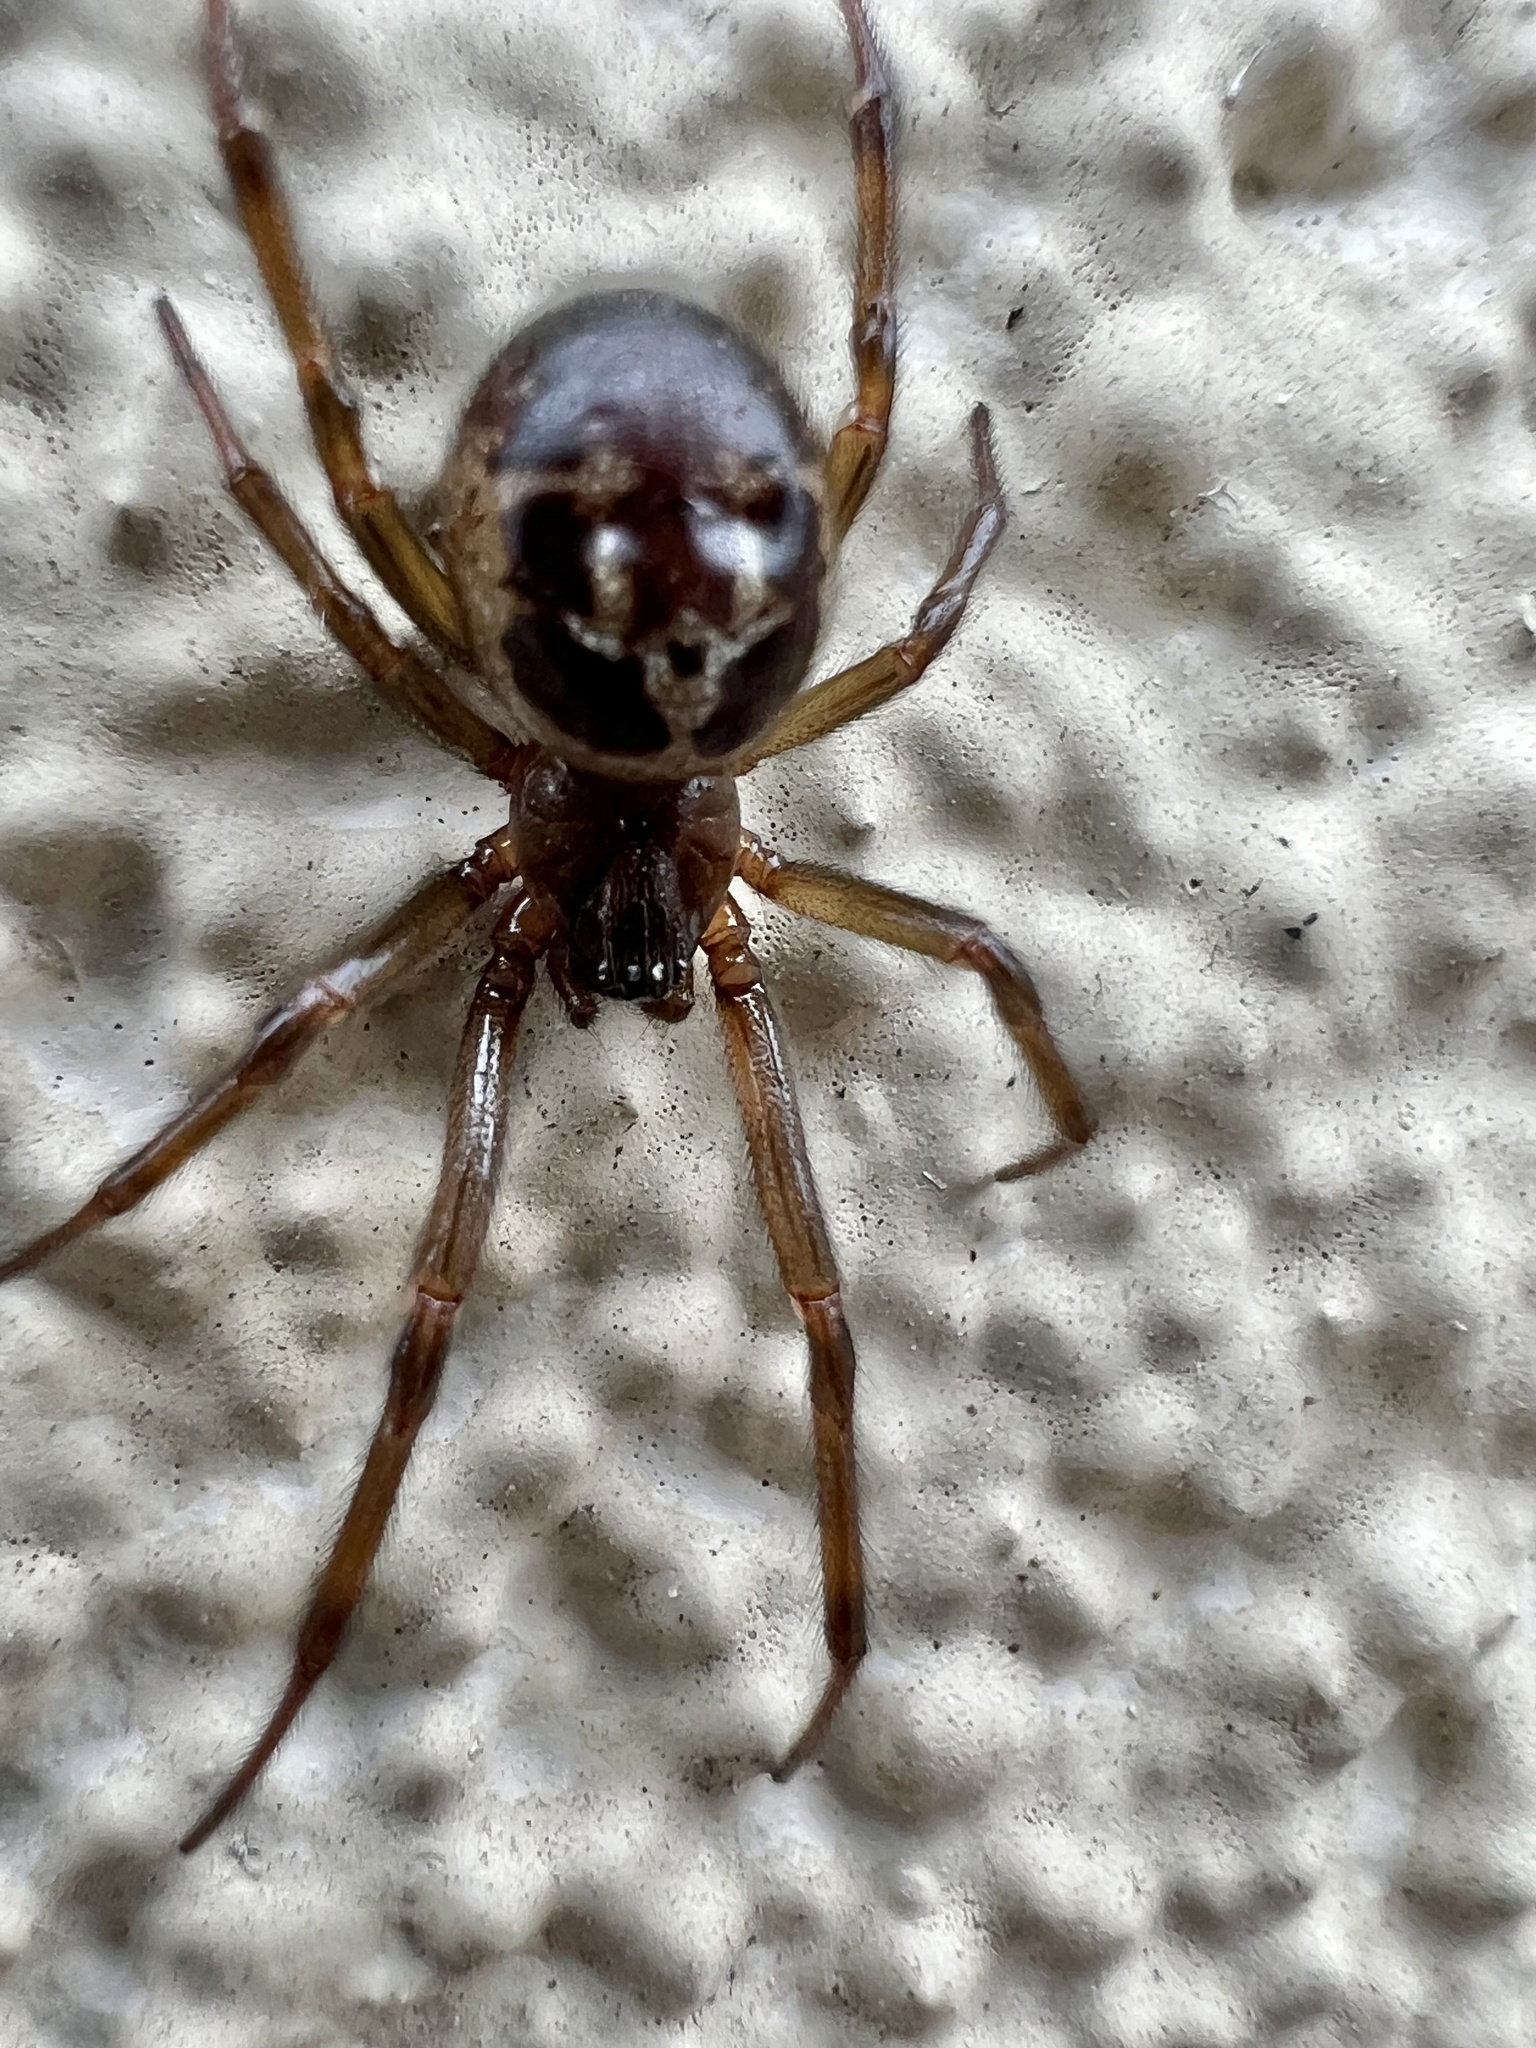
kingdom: Animalia
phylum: Arthropoda
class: Arachnida
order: Araneae
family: Theridiidae
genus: Steatoda
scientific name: Steatoda nobilis
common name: Cobweb weaver
